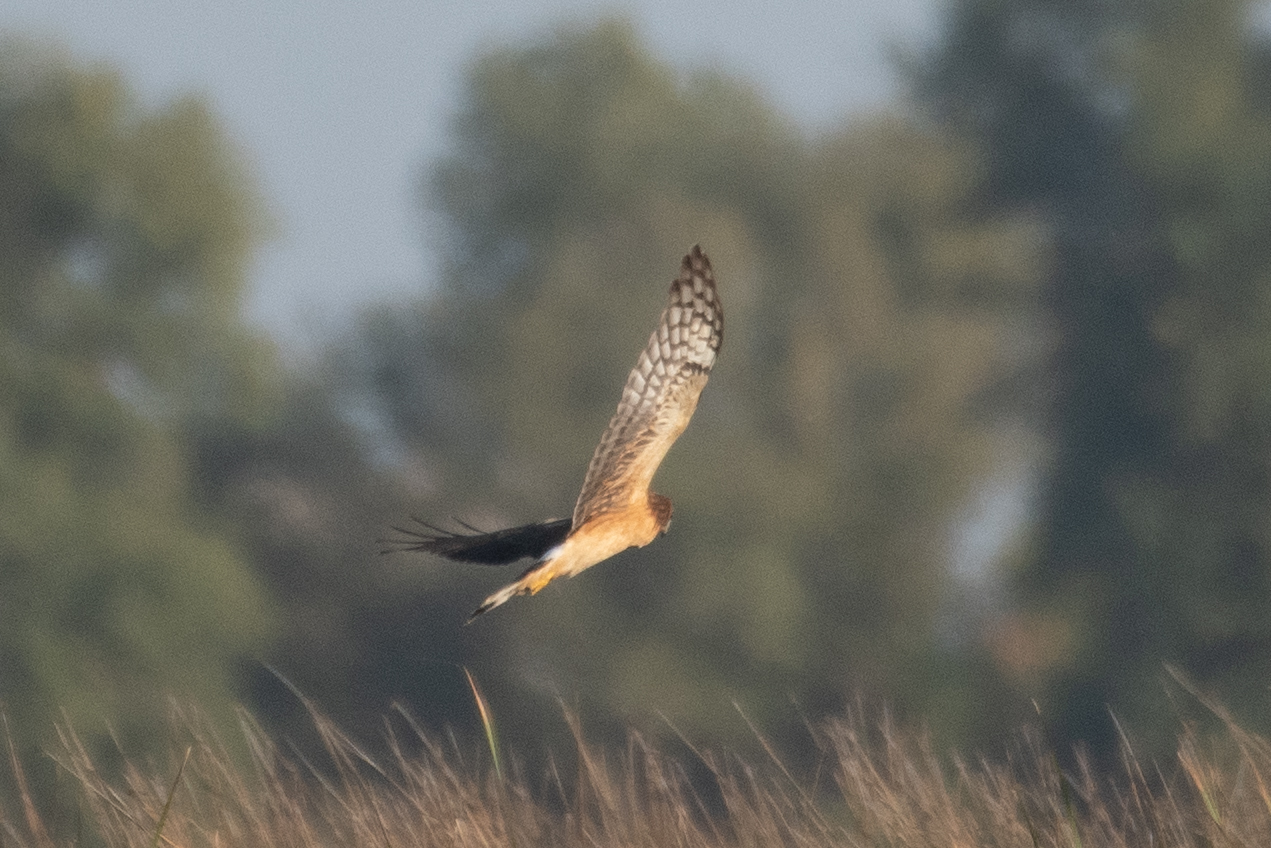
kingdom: Animalia
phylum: Chordata
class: Aves
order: Accipitriformes
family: Accipitridae
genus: Circus
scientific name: Circus cyaneus
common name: Hen harrier
